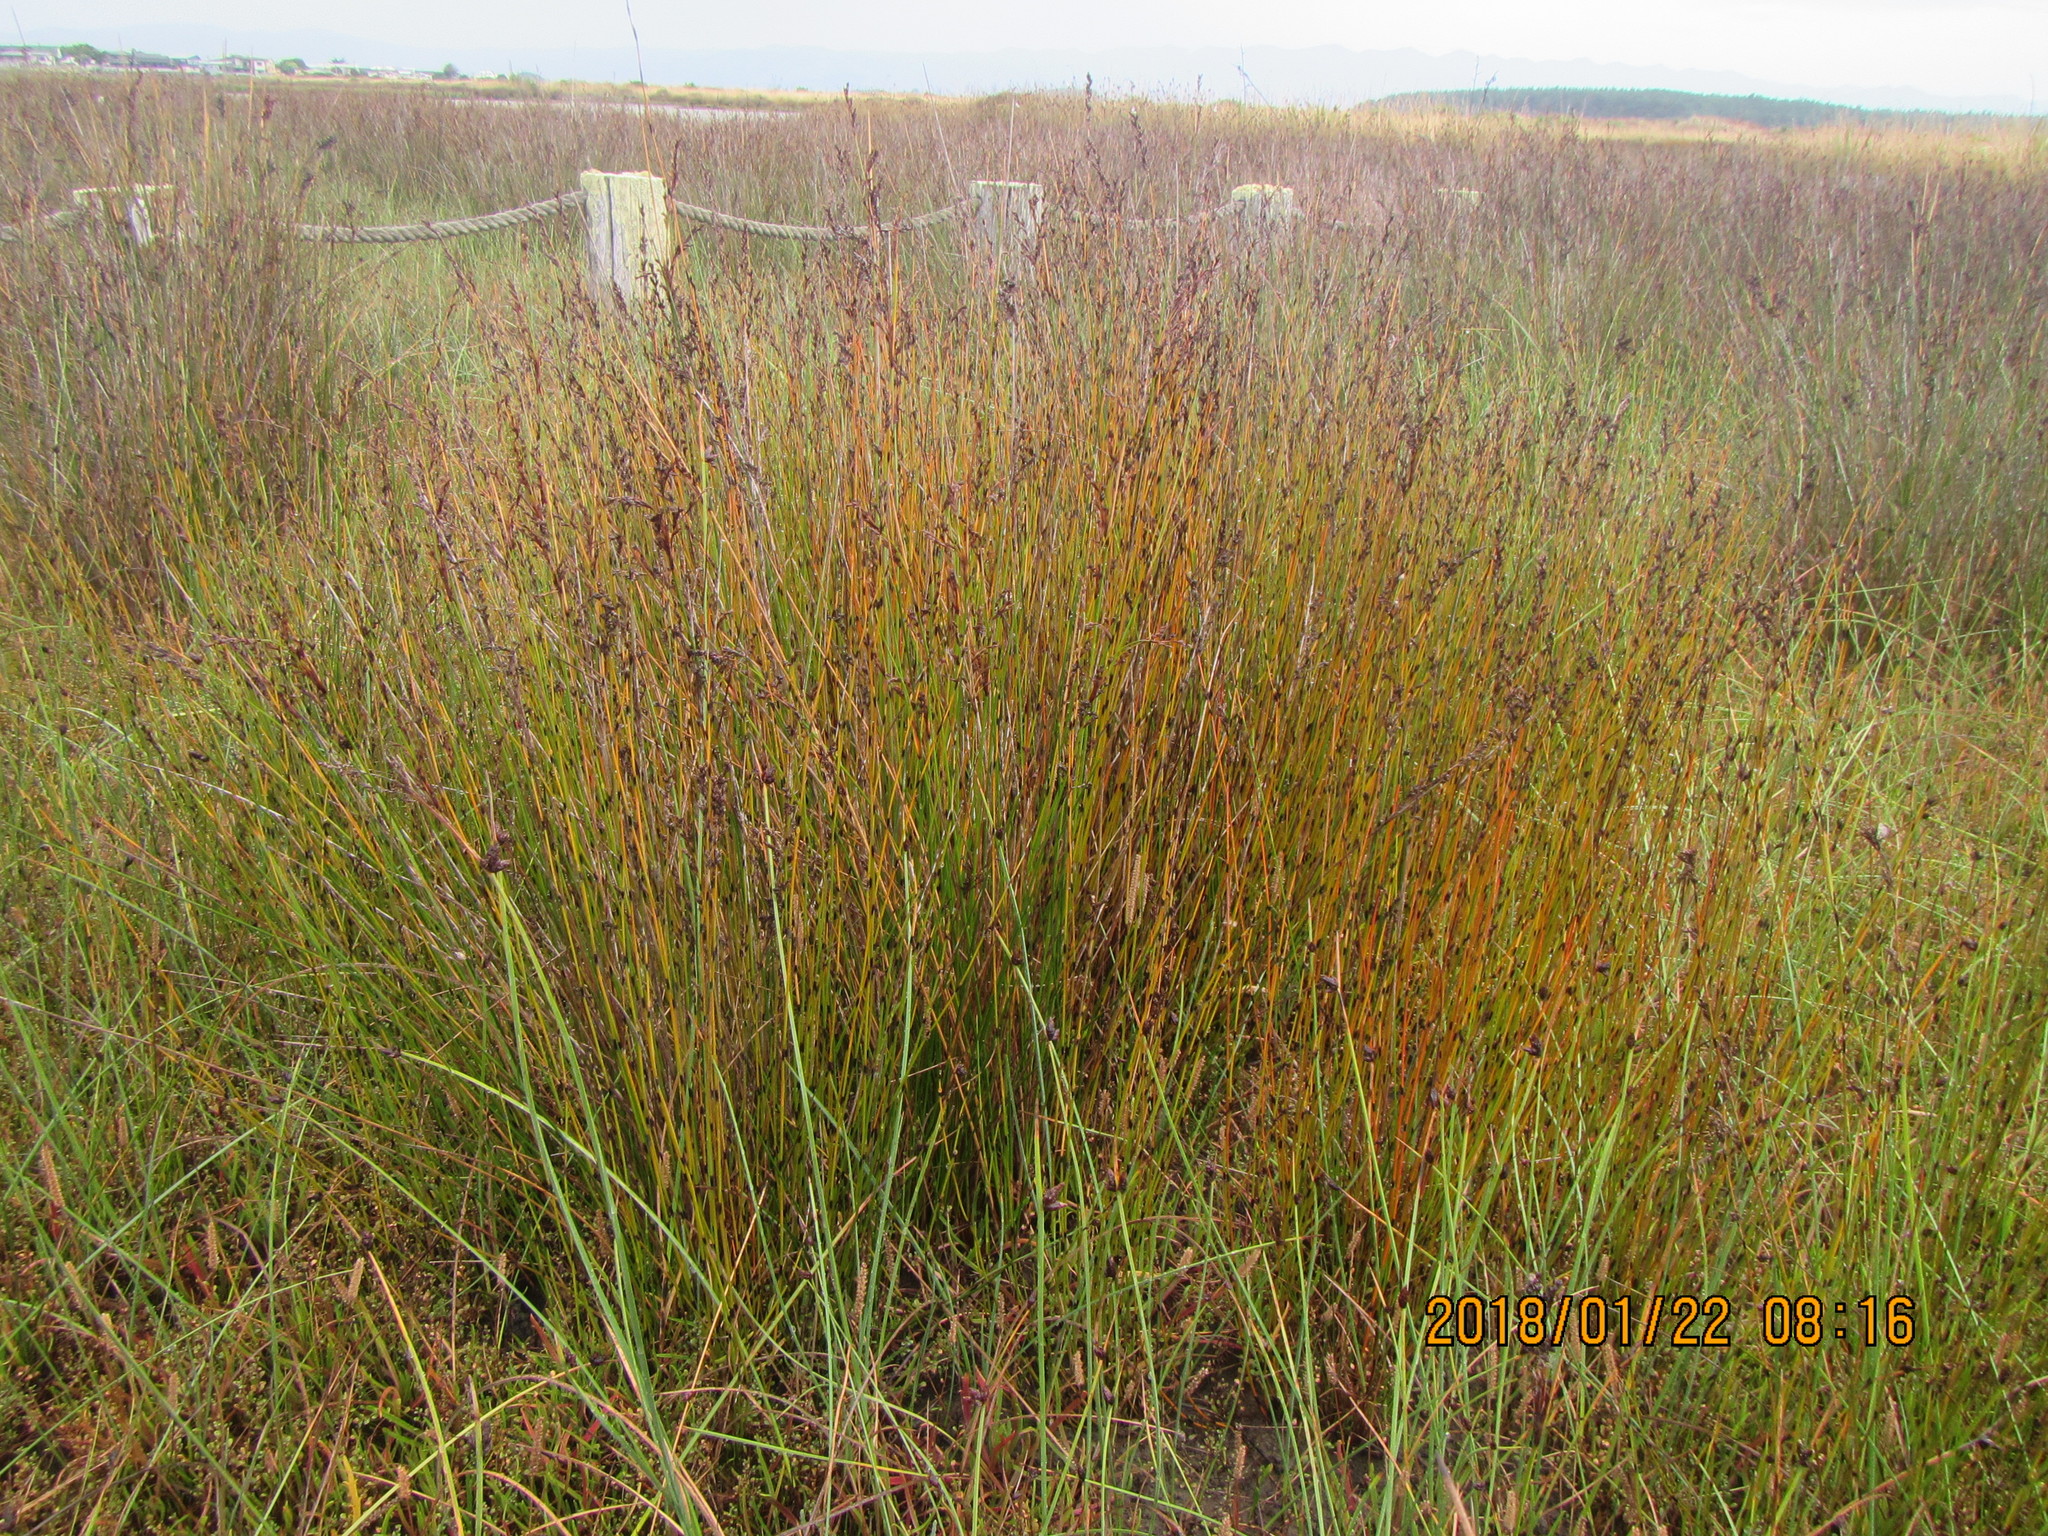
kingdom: Plantae
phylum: Tracheophyta
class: Liliopsida
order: Poales
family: Restionaceae
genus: Apodasmia
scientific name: Apodasmia similis
